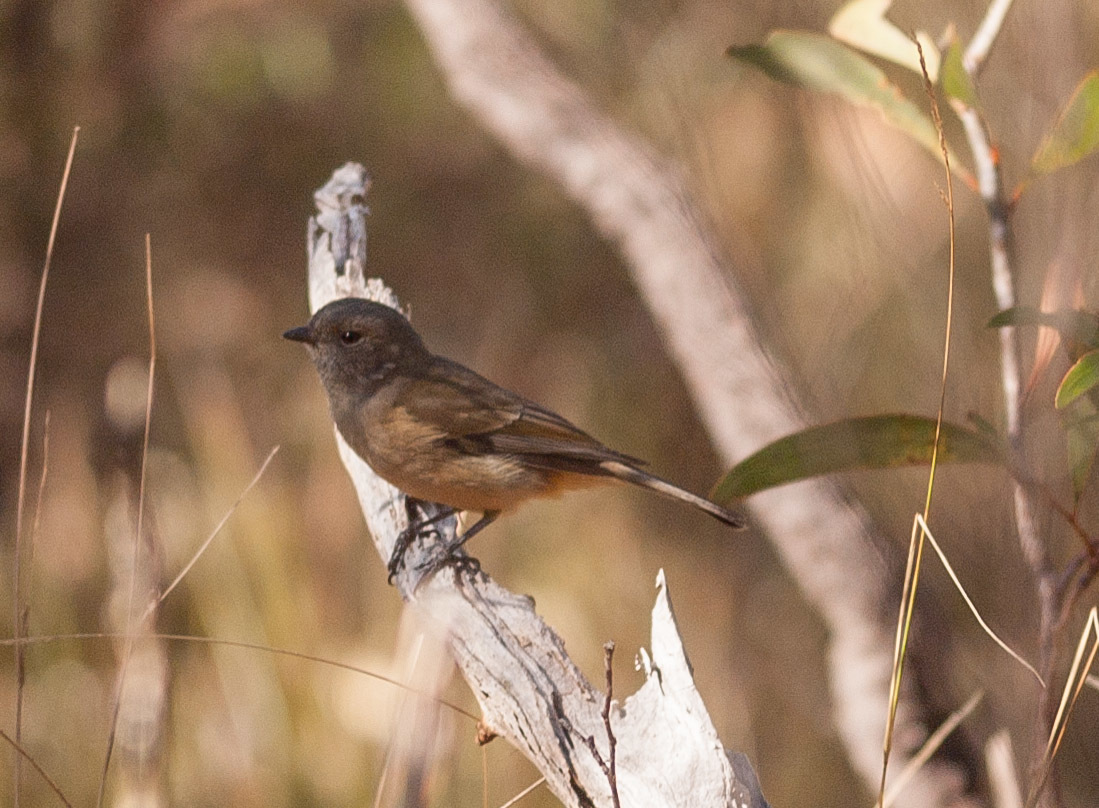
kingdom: Animalia
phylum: Chordata
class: Aves
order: Passeriformes
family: Pachycephalidae
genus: Pachycephala
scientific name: Pachycephala fuliginosa
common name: Western whistler
